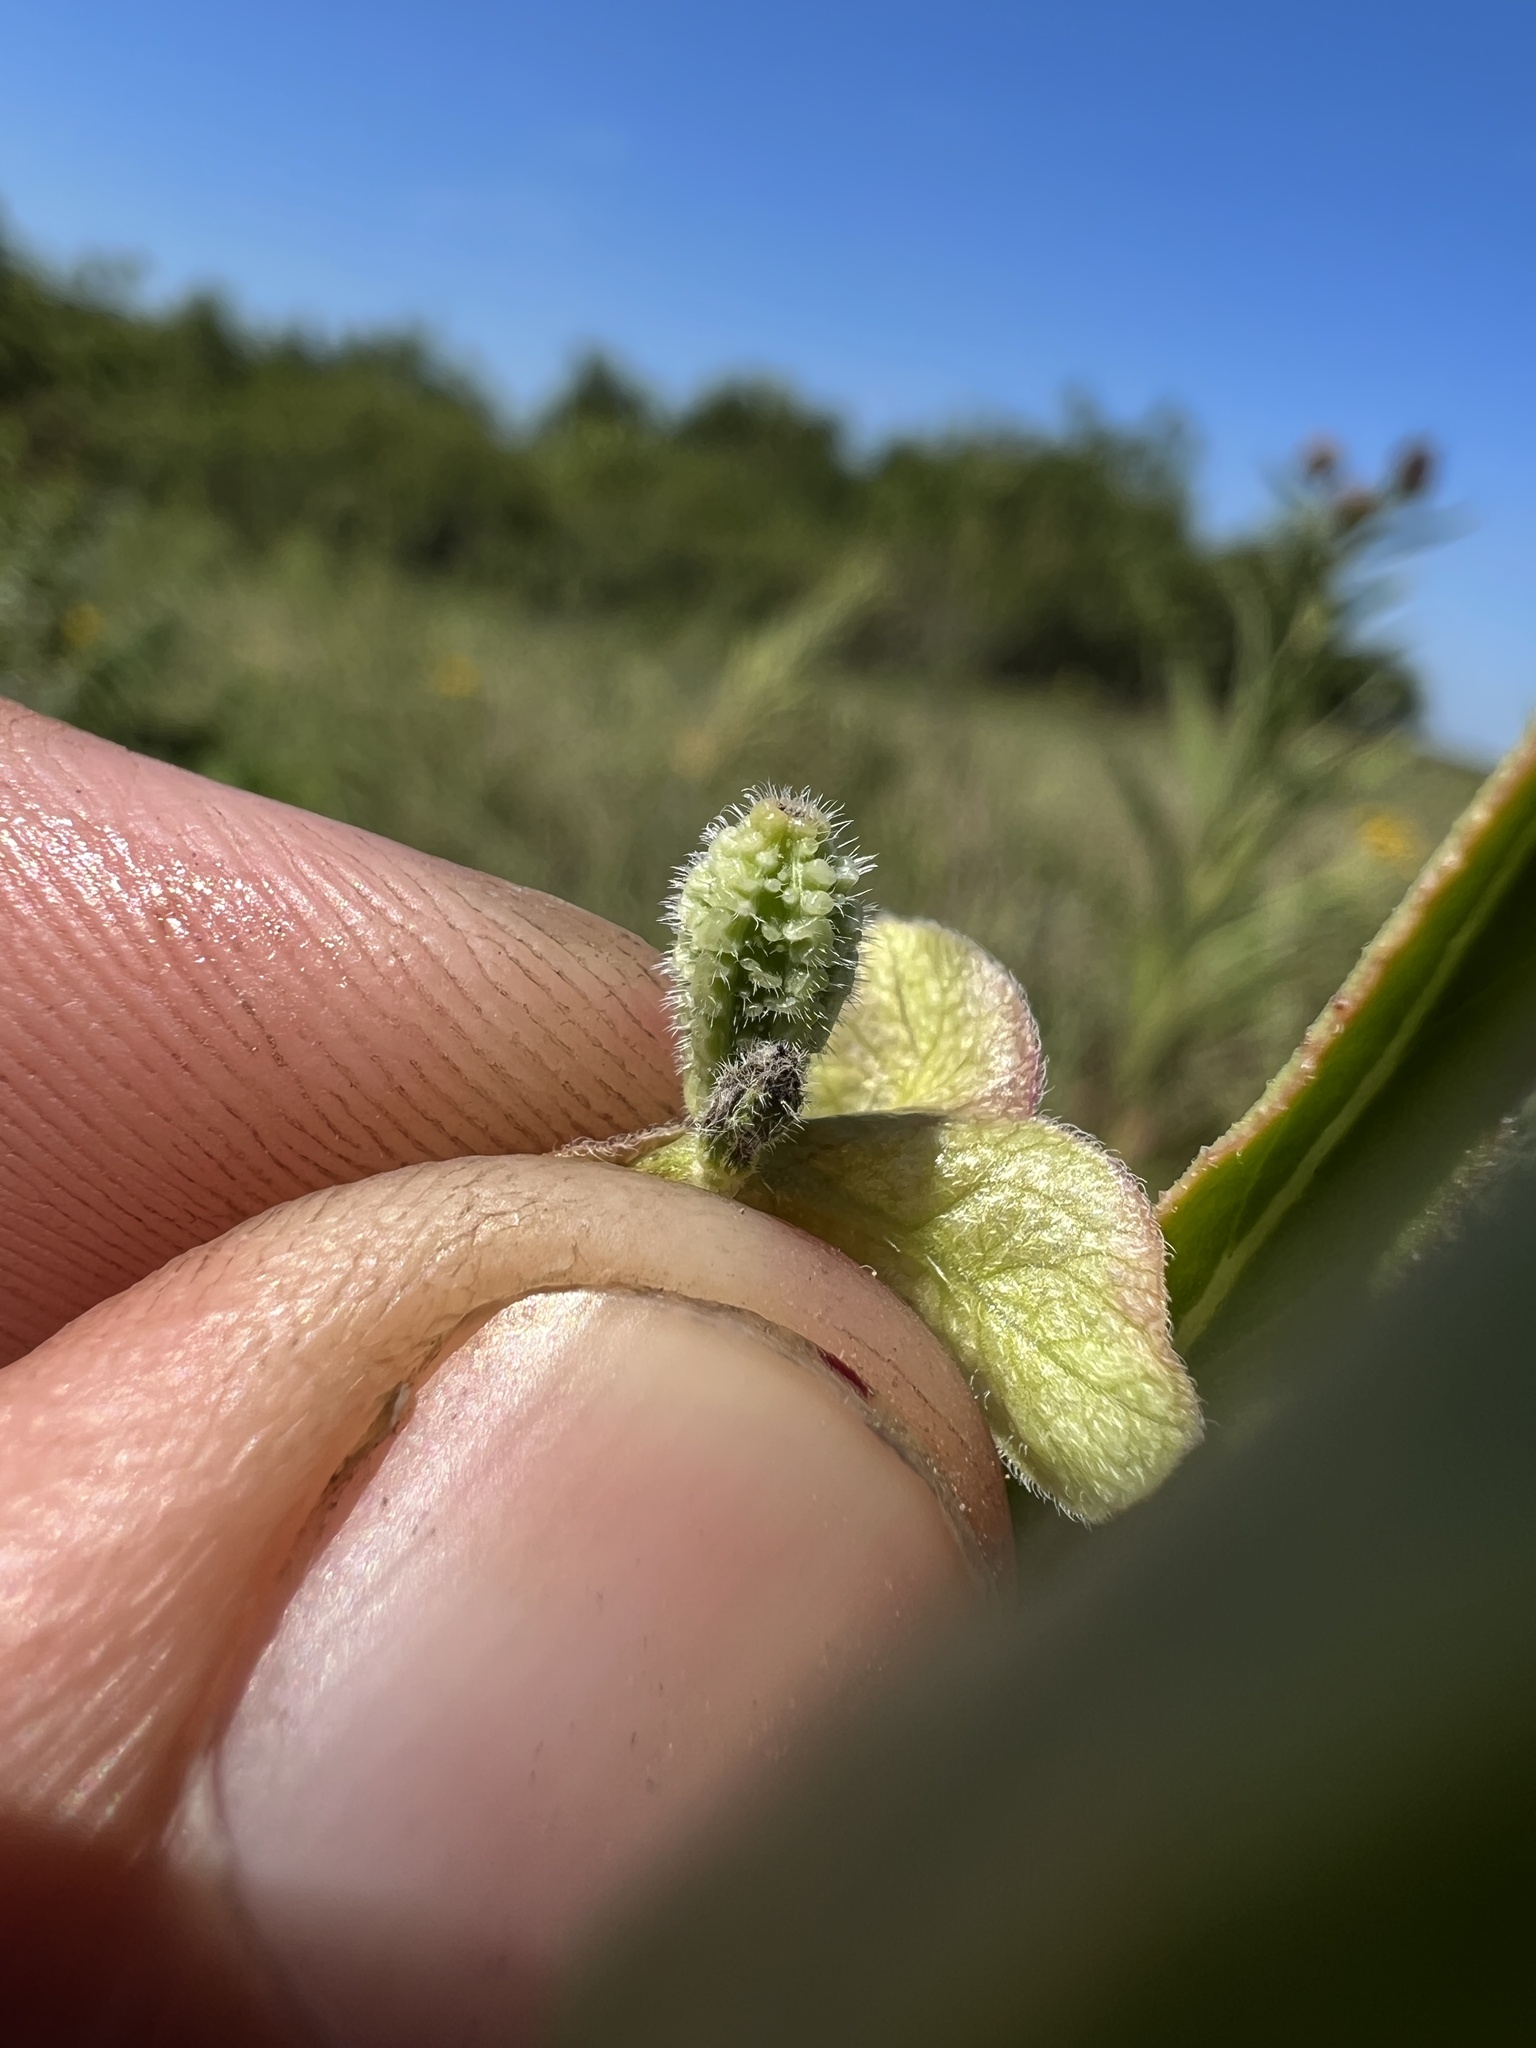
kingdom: Plantae
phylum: Tracheophyta
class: Magnoliopsida
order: Caryophyllales
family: Nyctaginaceae
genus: Mirabilis
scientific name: Mirabilis albida
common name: Hairy four-o'clock
